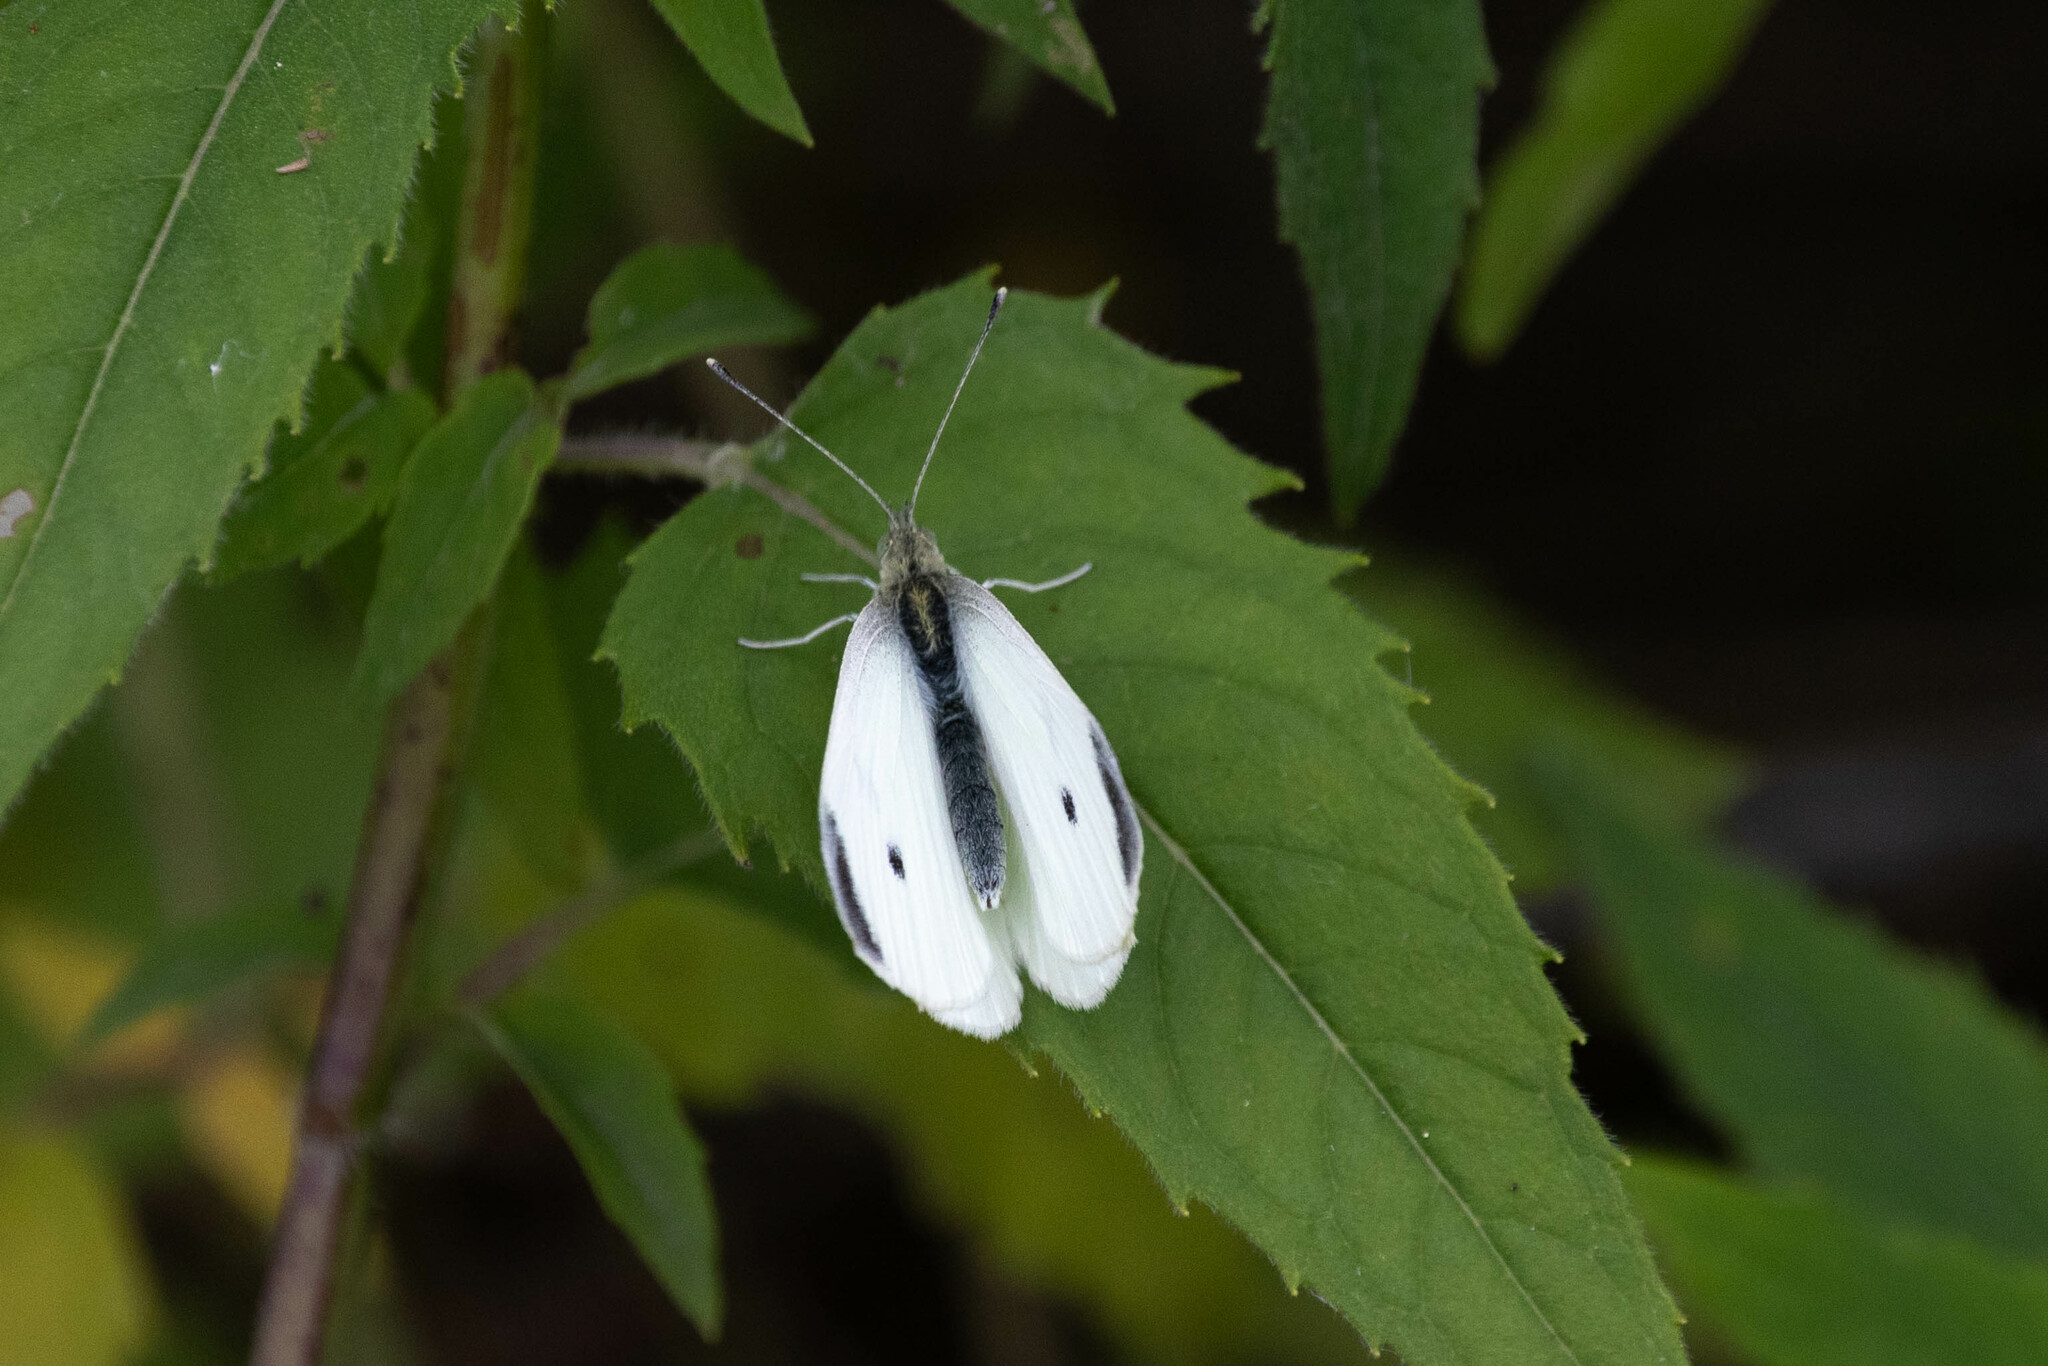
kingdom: Animalia
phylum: Arthropoda
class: Insecta
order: Lepidoptera
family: Pieridae
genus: Pieris
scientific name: Pieris rapae
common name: Small white
